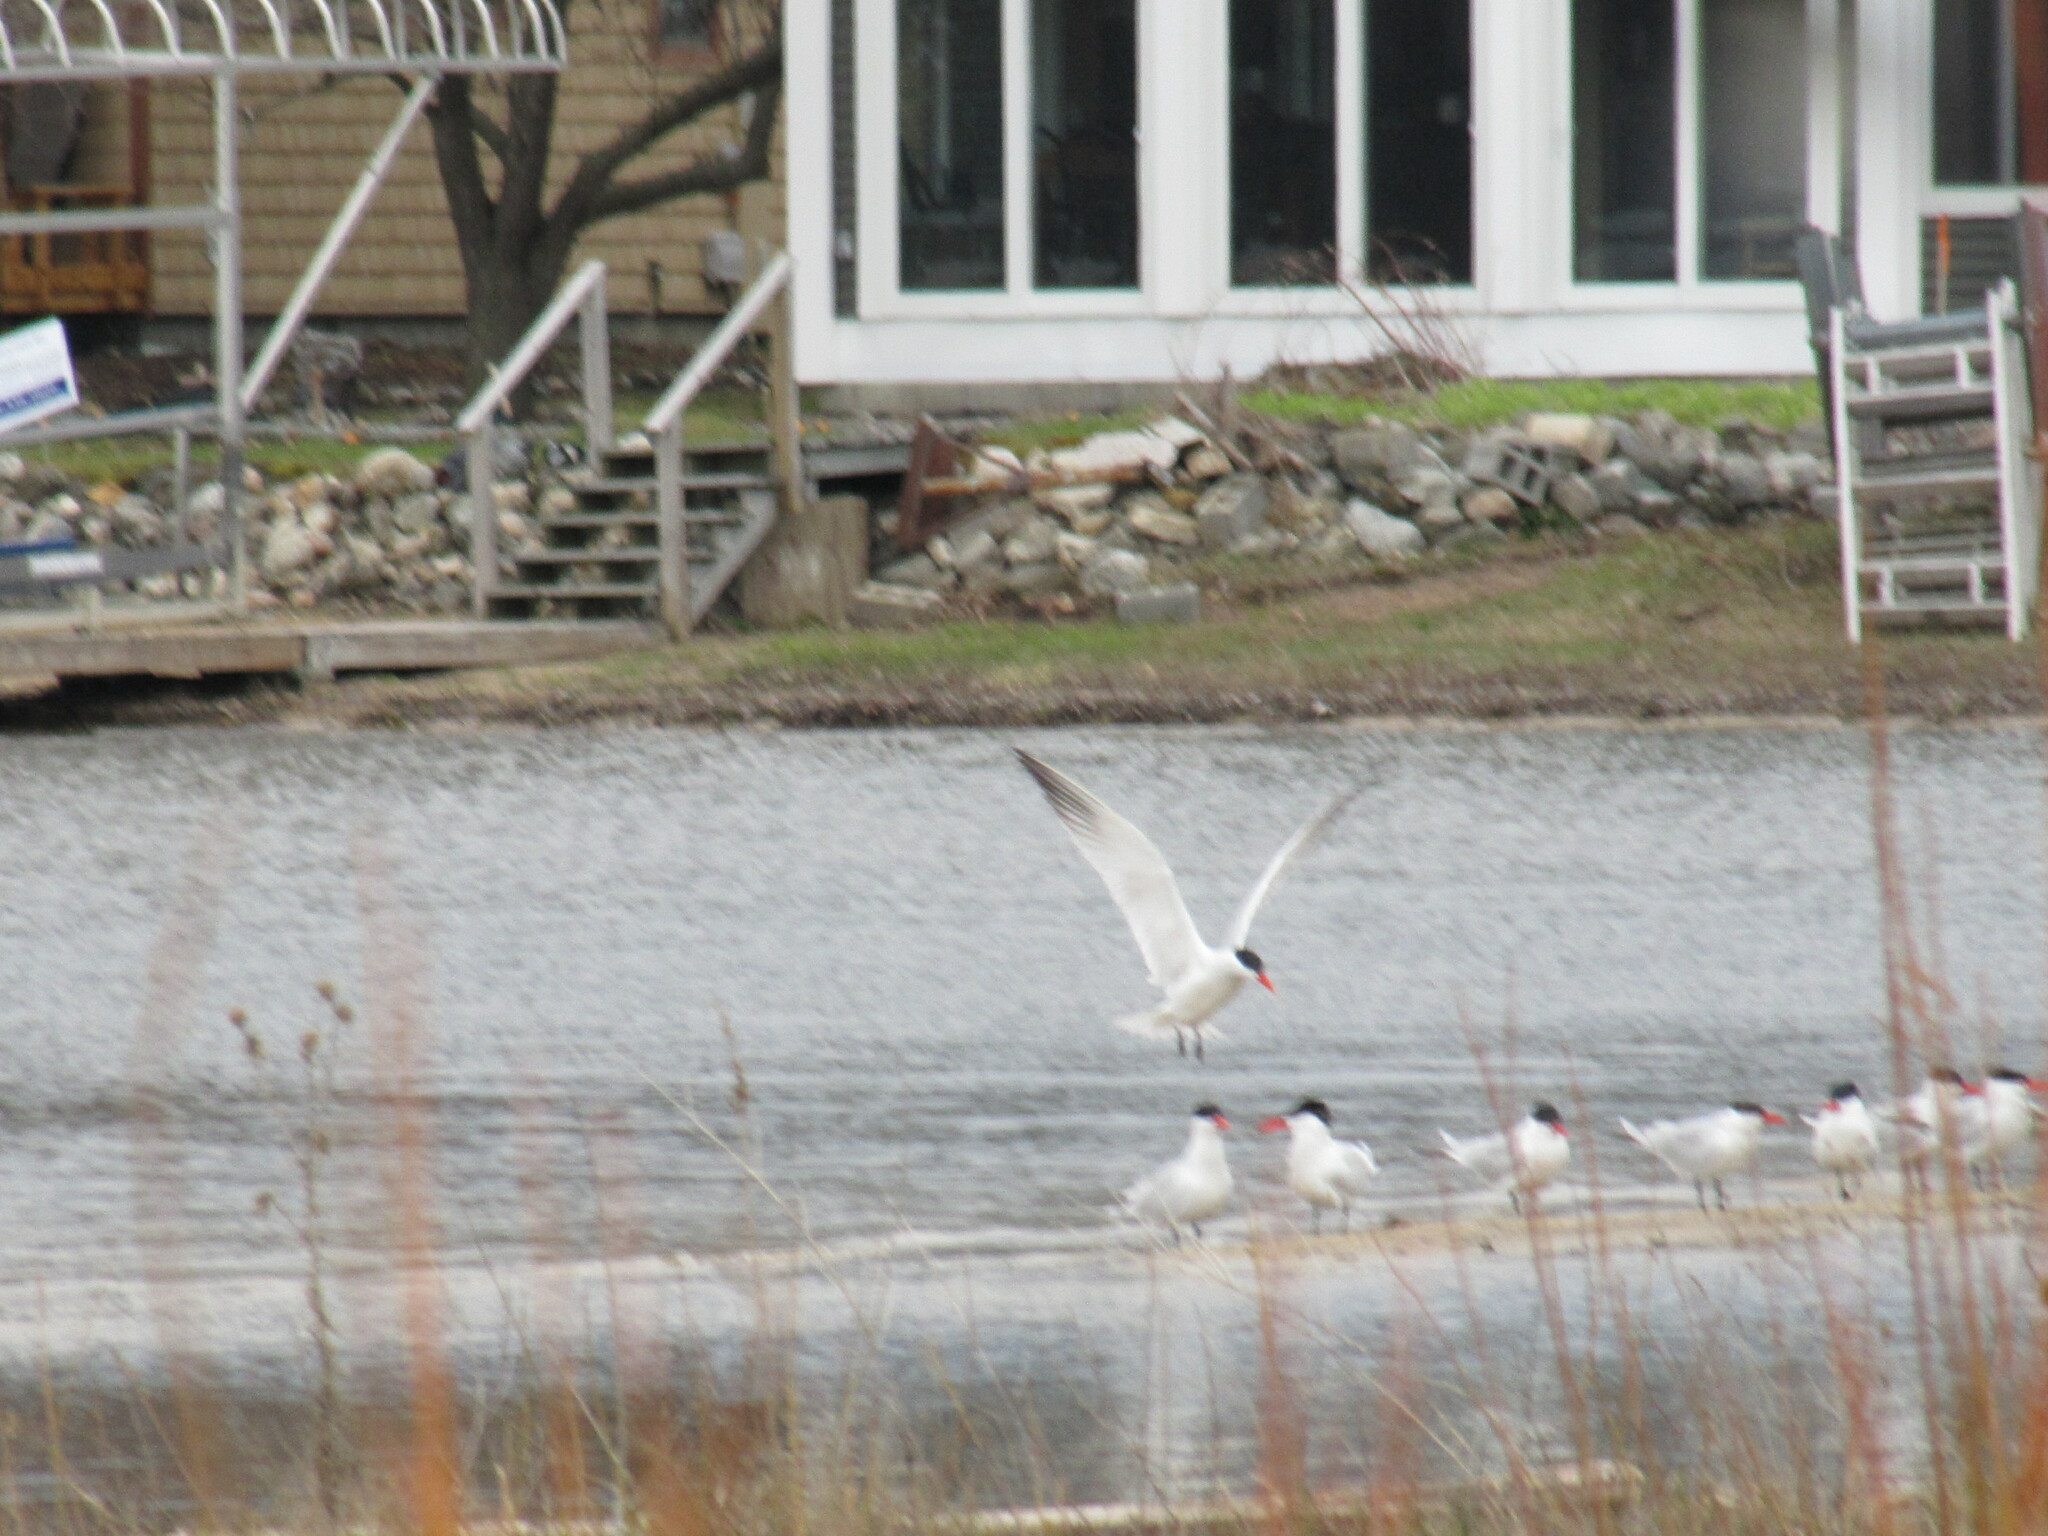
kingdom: Animalia
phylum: Chordata
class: Aves
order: Charadriiformes
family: Laridae
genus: Hydroprogne
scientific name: Hydroprogne caspia
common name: Caspian tern
